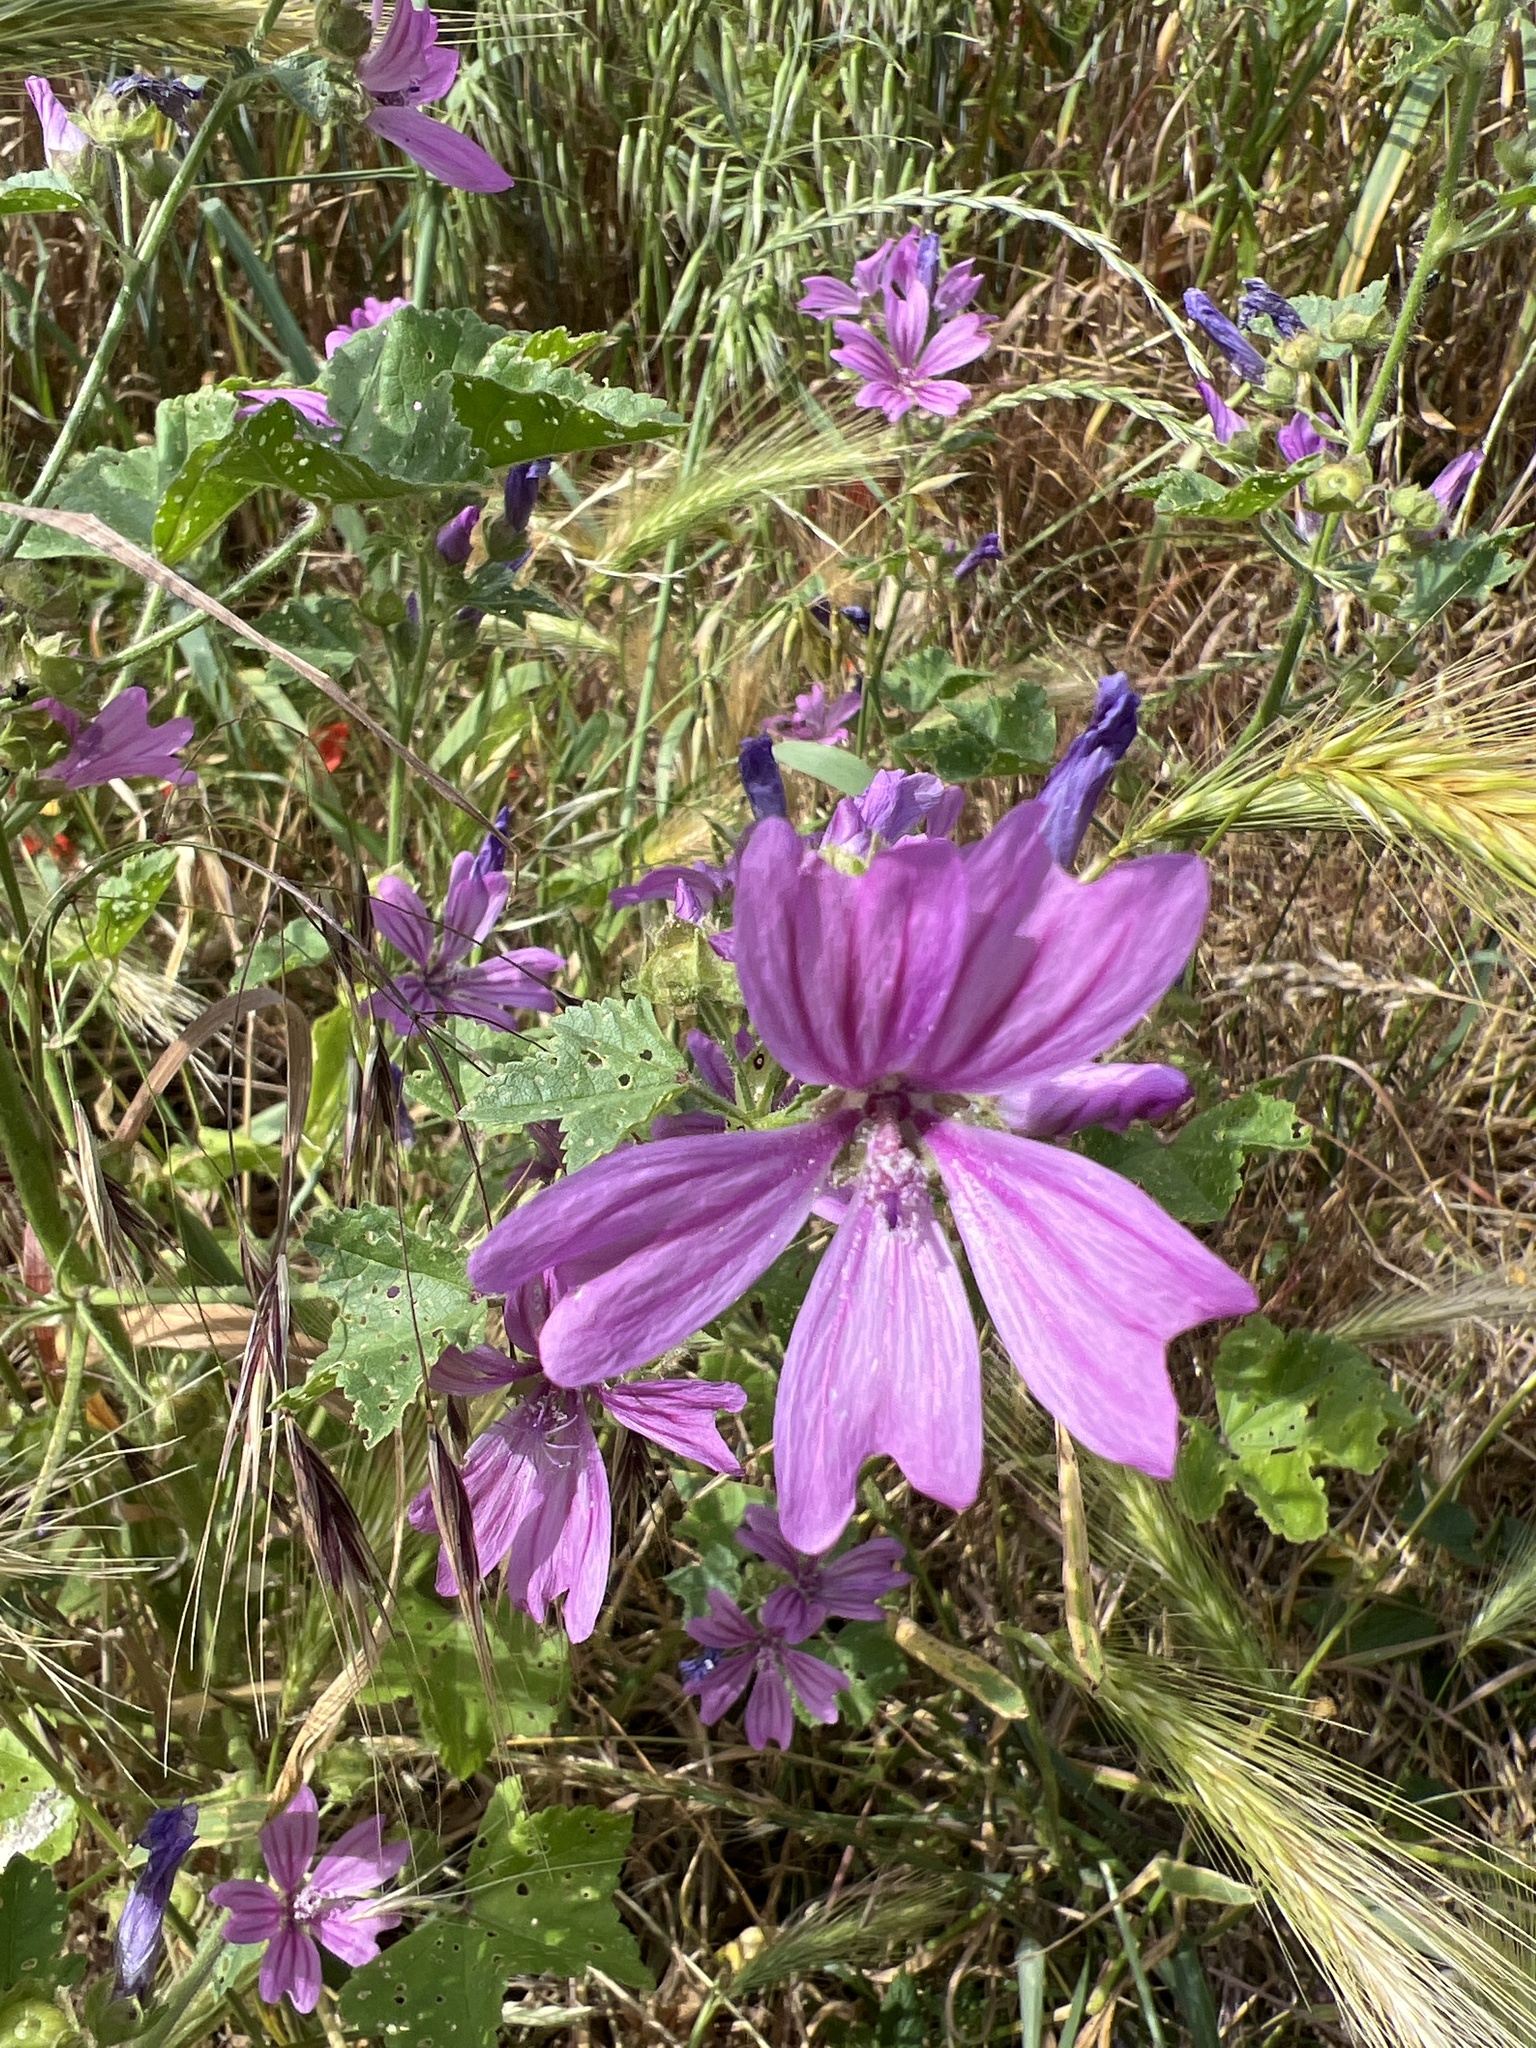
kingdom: Plantae
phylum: Tracheophyta
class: Magnoliopsida
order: Malvales
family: Malvaceae
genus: Malva
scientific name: Malva sylvestris
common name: Common mallow
